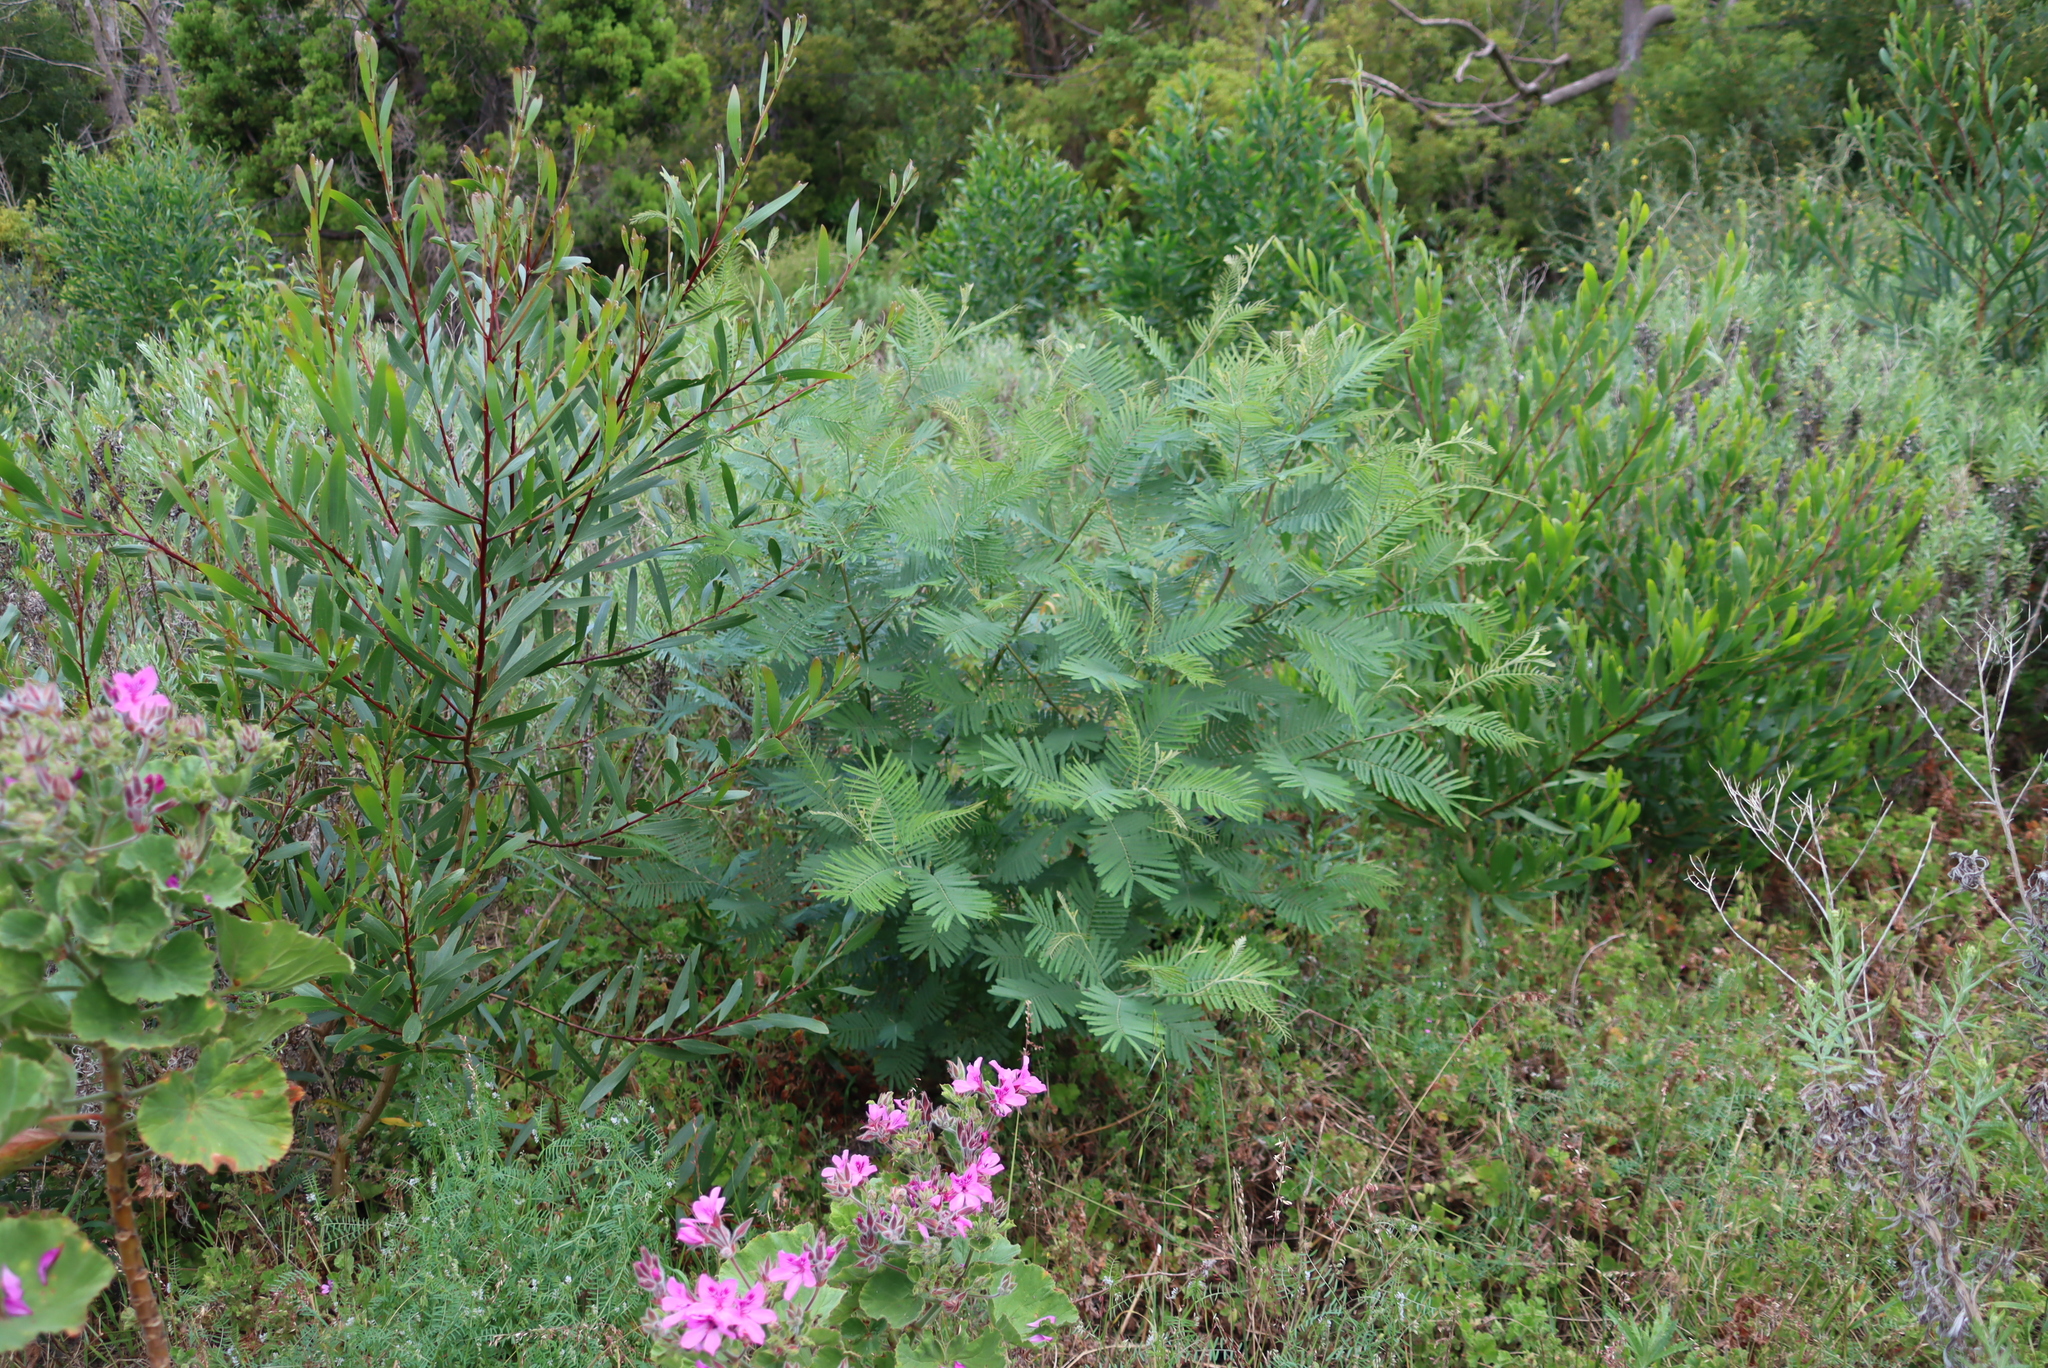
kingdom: Plantae
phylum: Tracheophyta
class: Magnoliopsida
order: Fabales
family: Fabaceae
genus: Acacia
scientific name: Acacia mearnsii
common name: Black wattle
